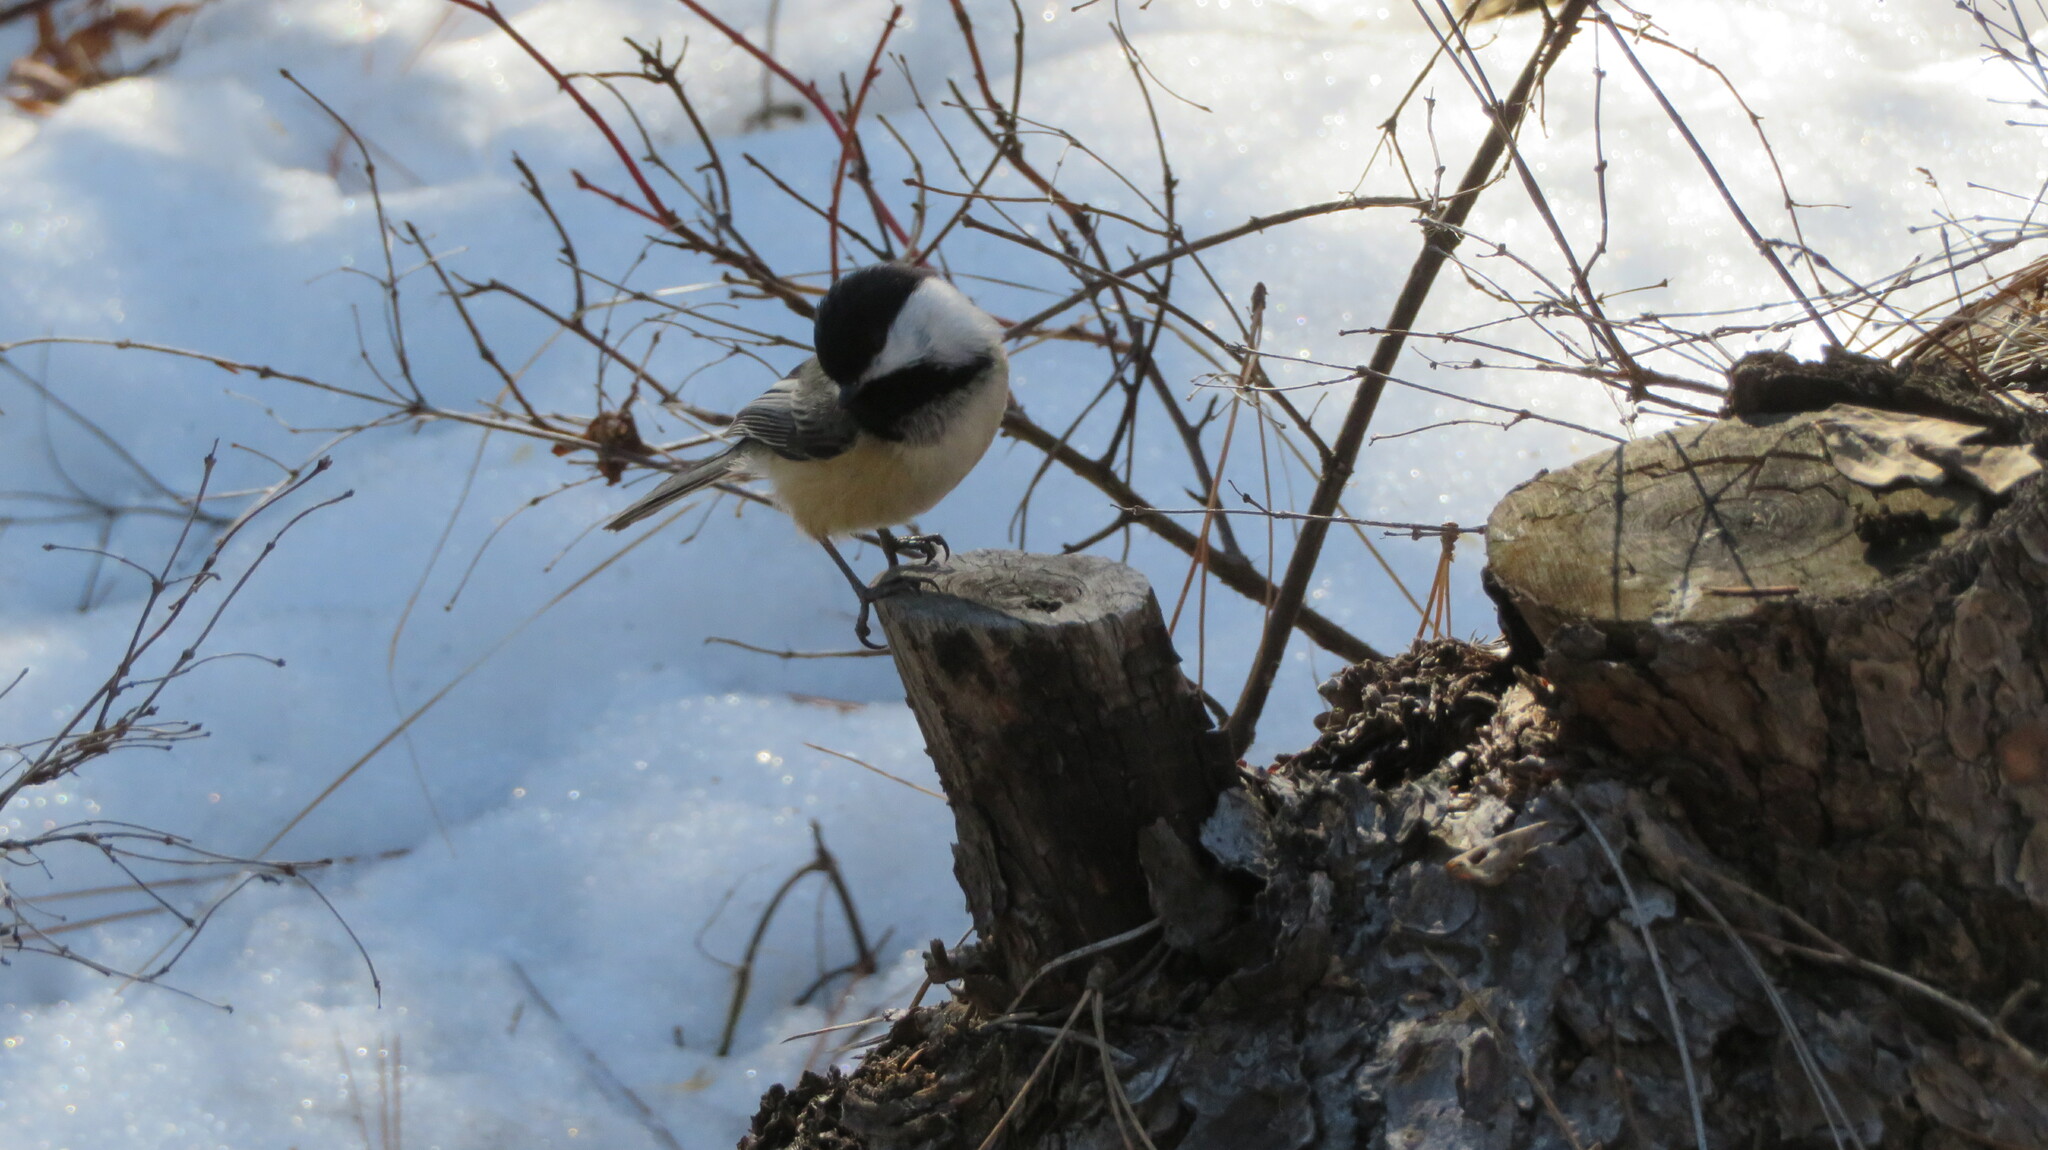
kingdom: Animalia
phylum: Chordata
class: Aves
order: Passeriformes
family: Paridae
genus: Poecile
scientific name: Poecile atricapillus
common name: Black-capped chickadee
